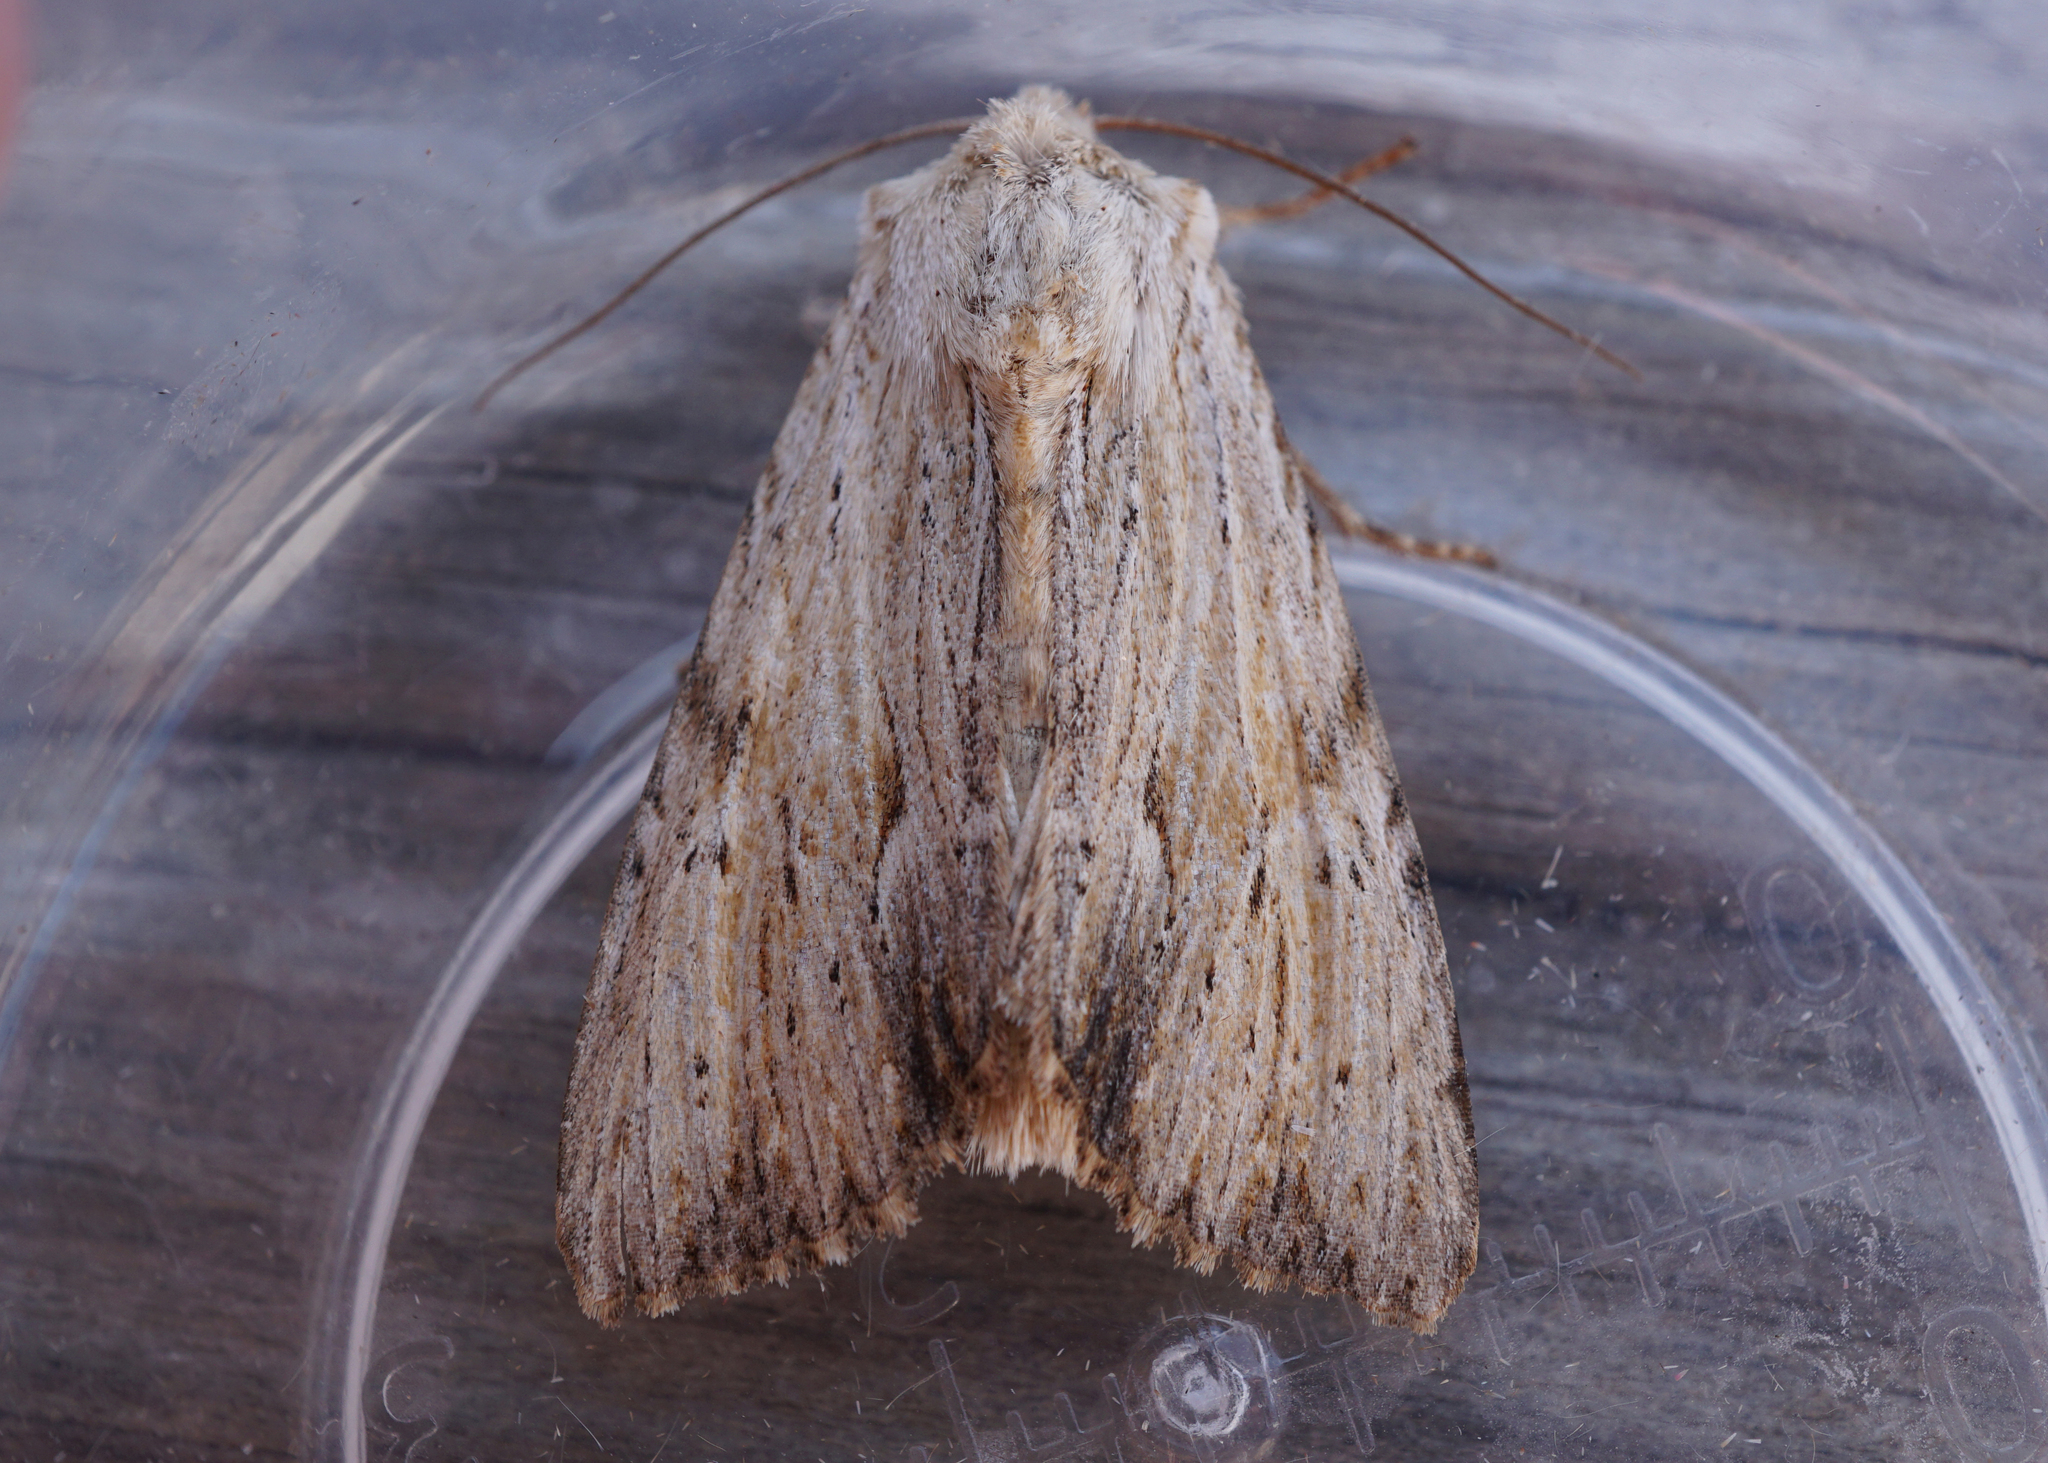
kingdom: Animalia
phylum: Arthropoda
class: Insecta
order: Lepidoptera
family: Noctuidae
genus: Apamea
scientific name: Apamea lithoxylaea
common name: Light arches
